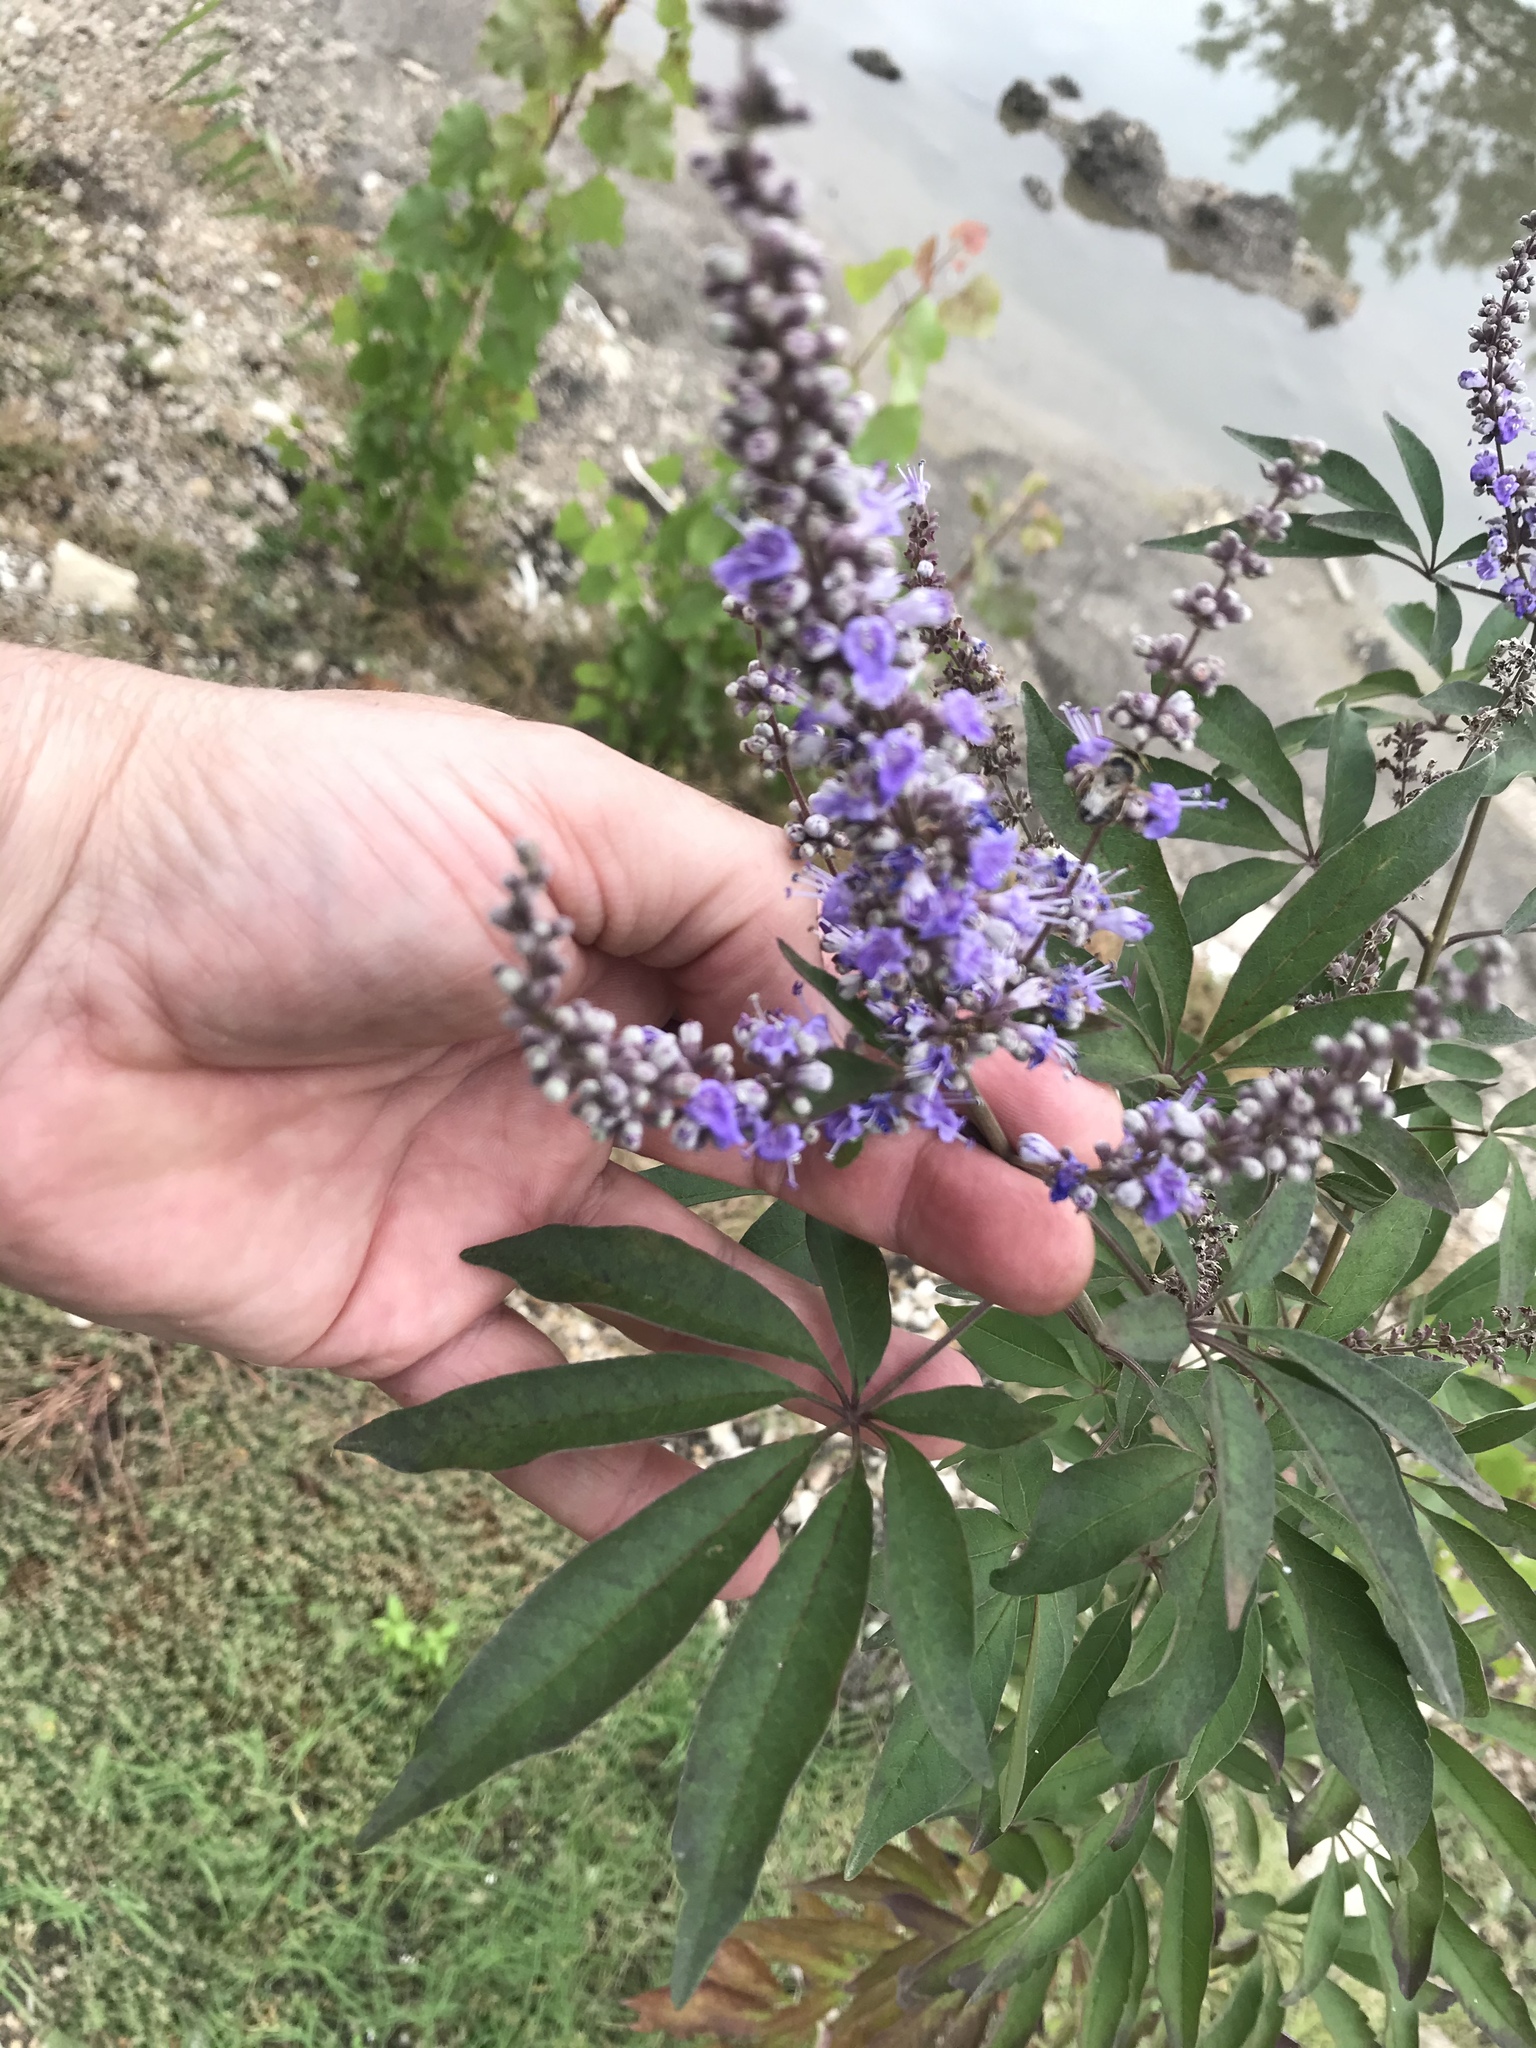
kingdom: Plantae
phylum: Tracheophyta
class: Magnoliopsida
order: Lamiales
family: Lamiaceae
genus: Vitex
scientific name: Vitex agnus-castus
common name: Chasteberry
